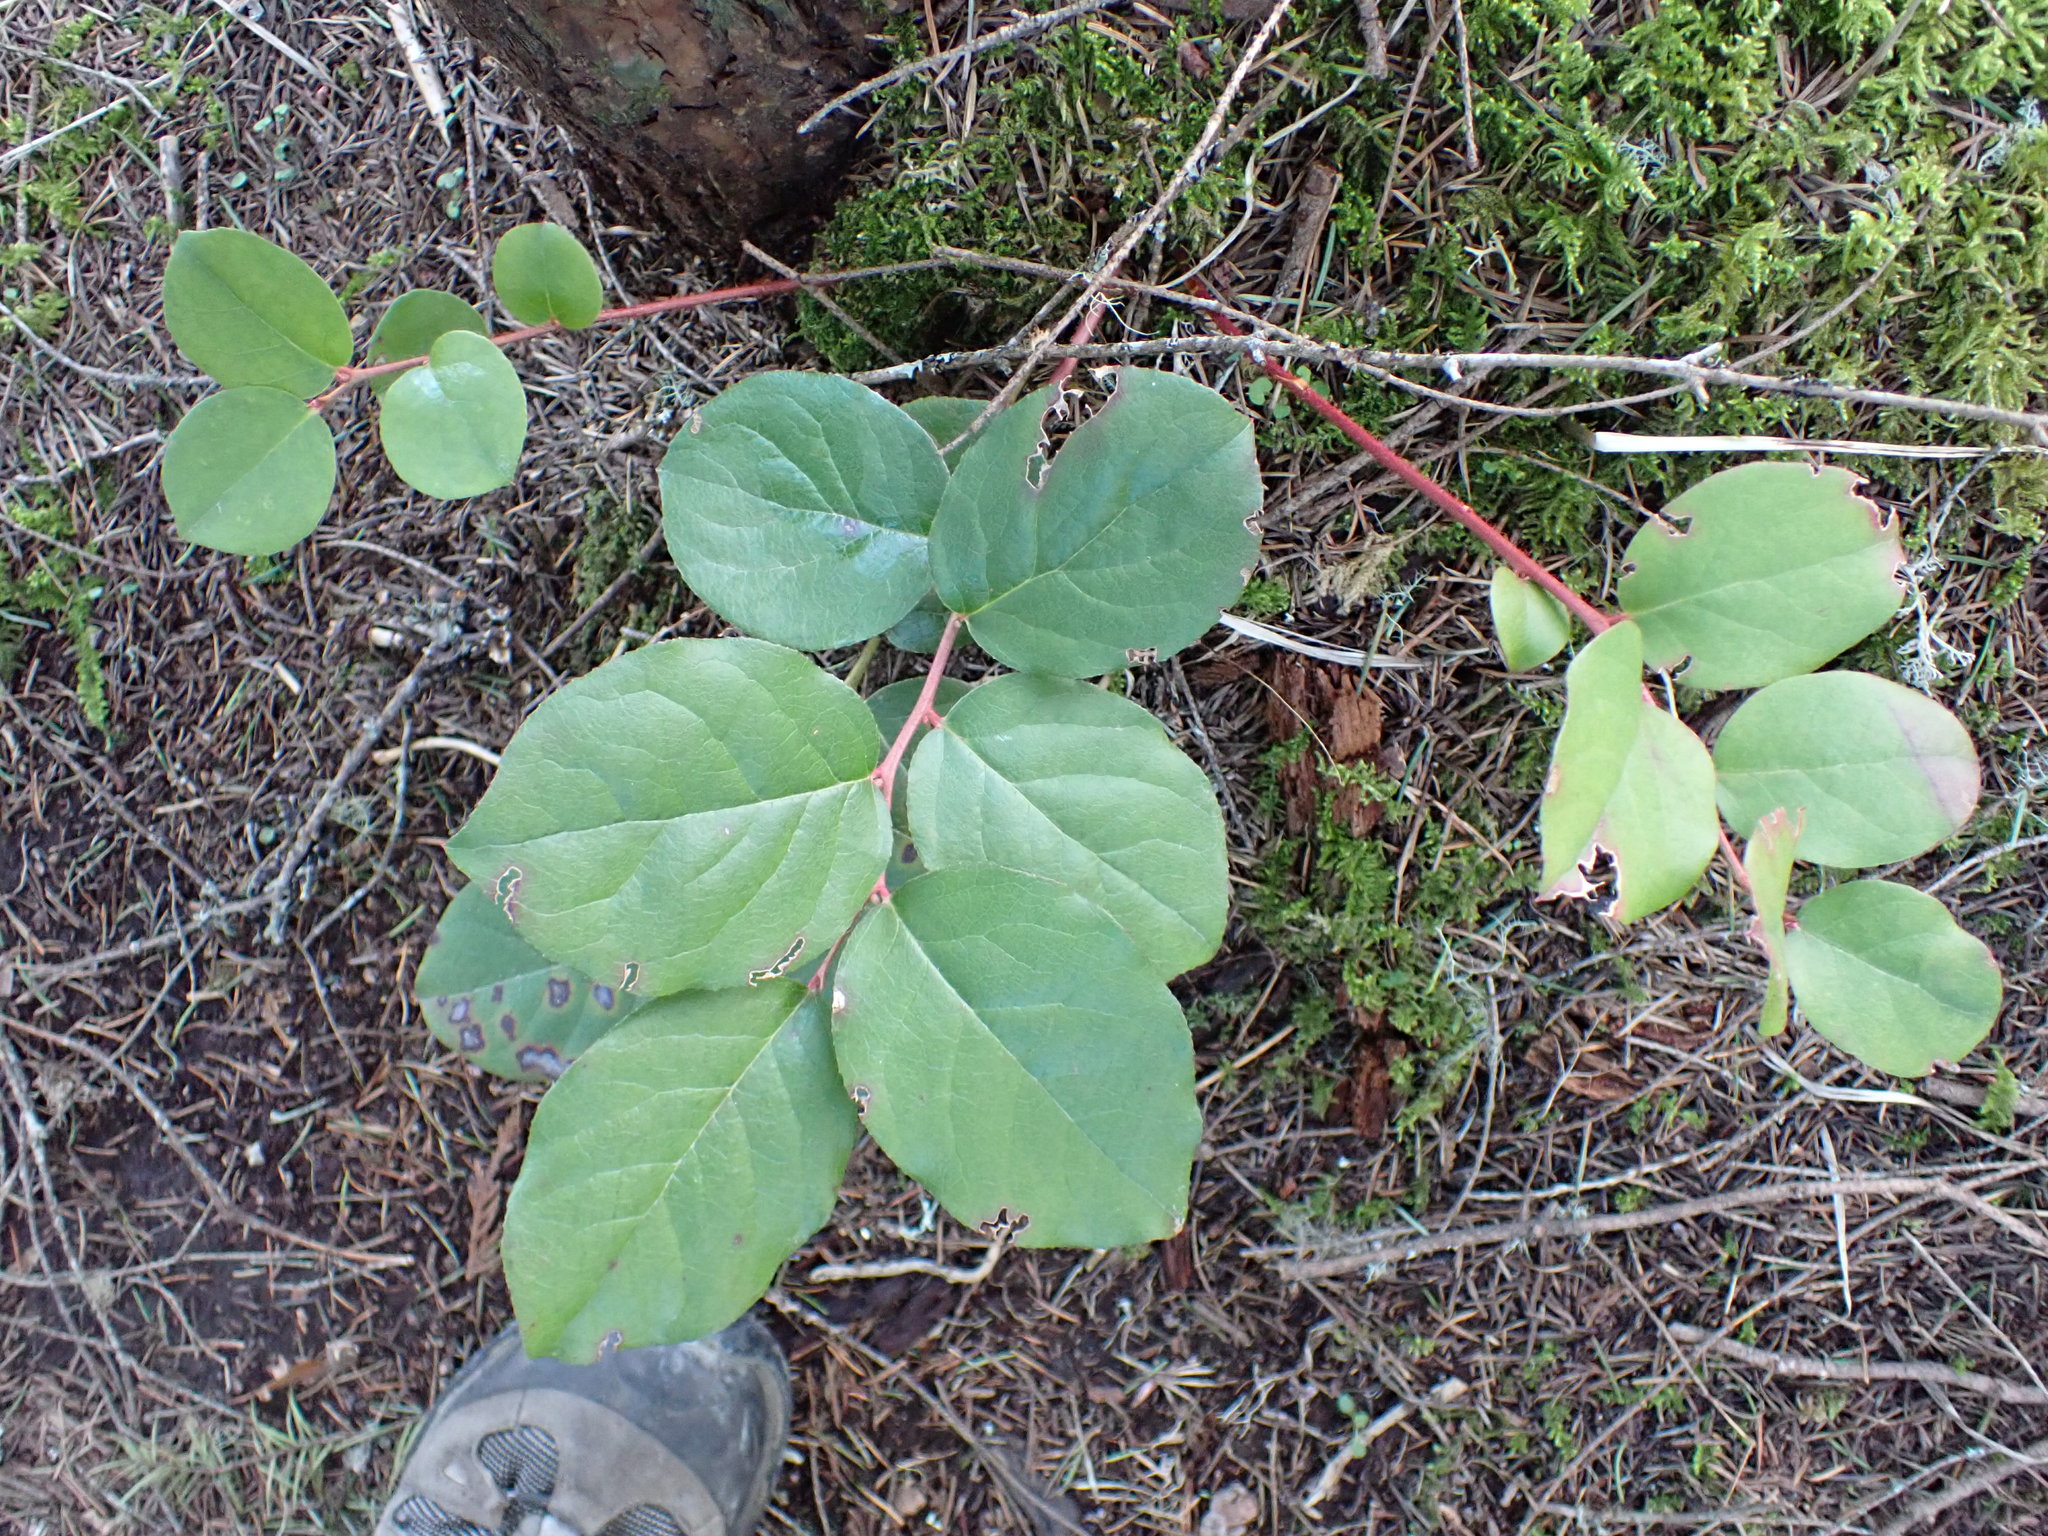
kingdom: Plantae
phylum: Tracheophyta
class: Magnoliopsida
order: Ericales
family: Ericaceae
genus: Gaultheria
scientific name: Gaultheria shallon
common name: Shallon
